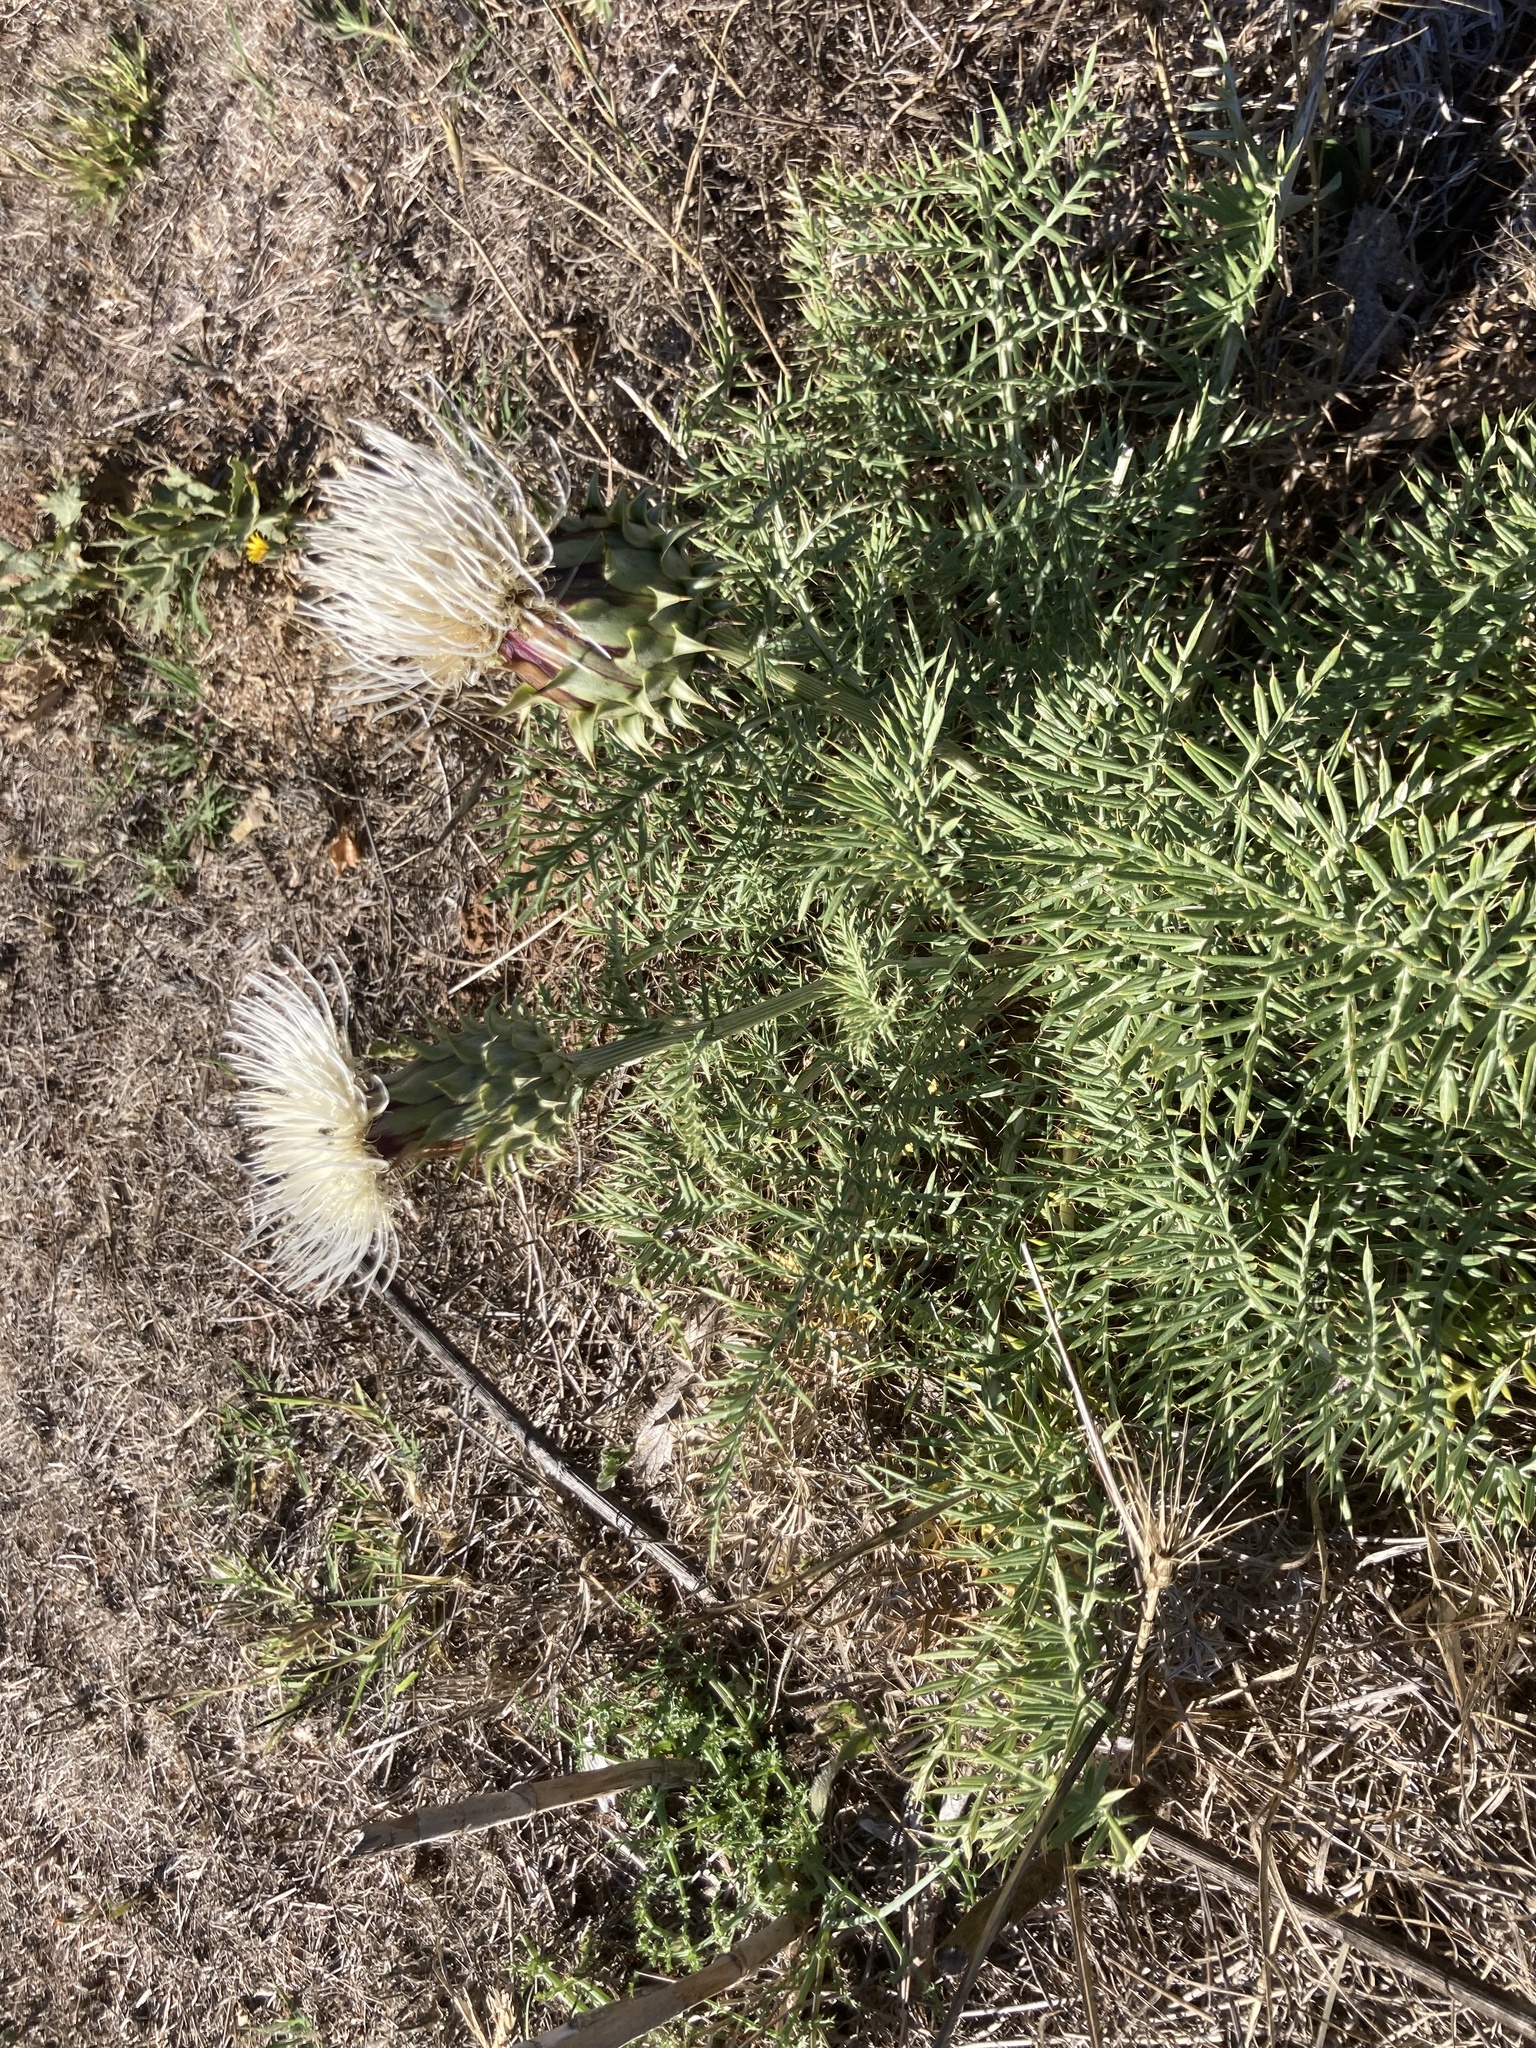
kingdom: Plantae
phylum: Tracheophyta
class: Magnoliopsida
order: Asterales
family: Asteraceae
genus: Cynara
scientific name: Cynara humilis
